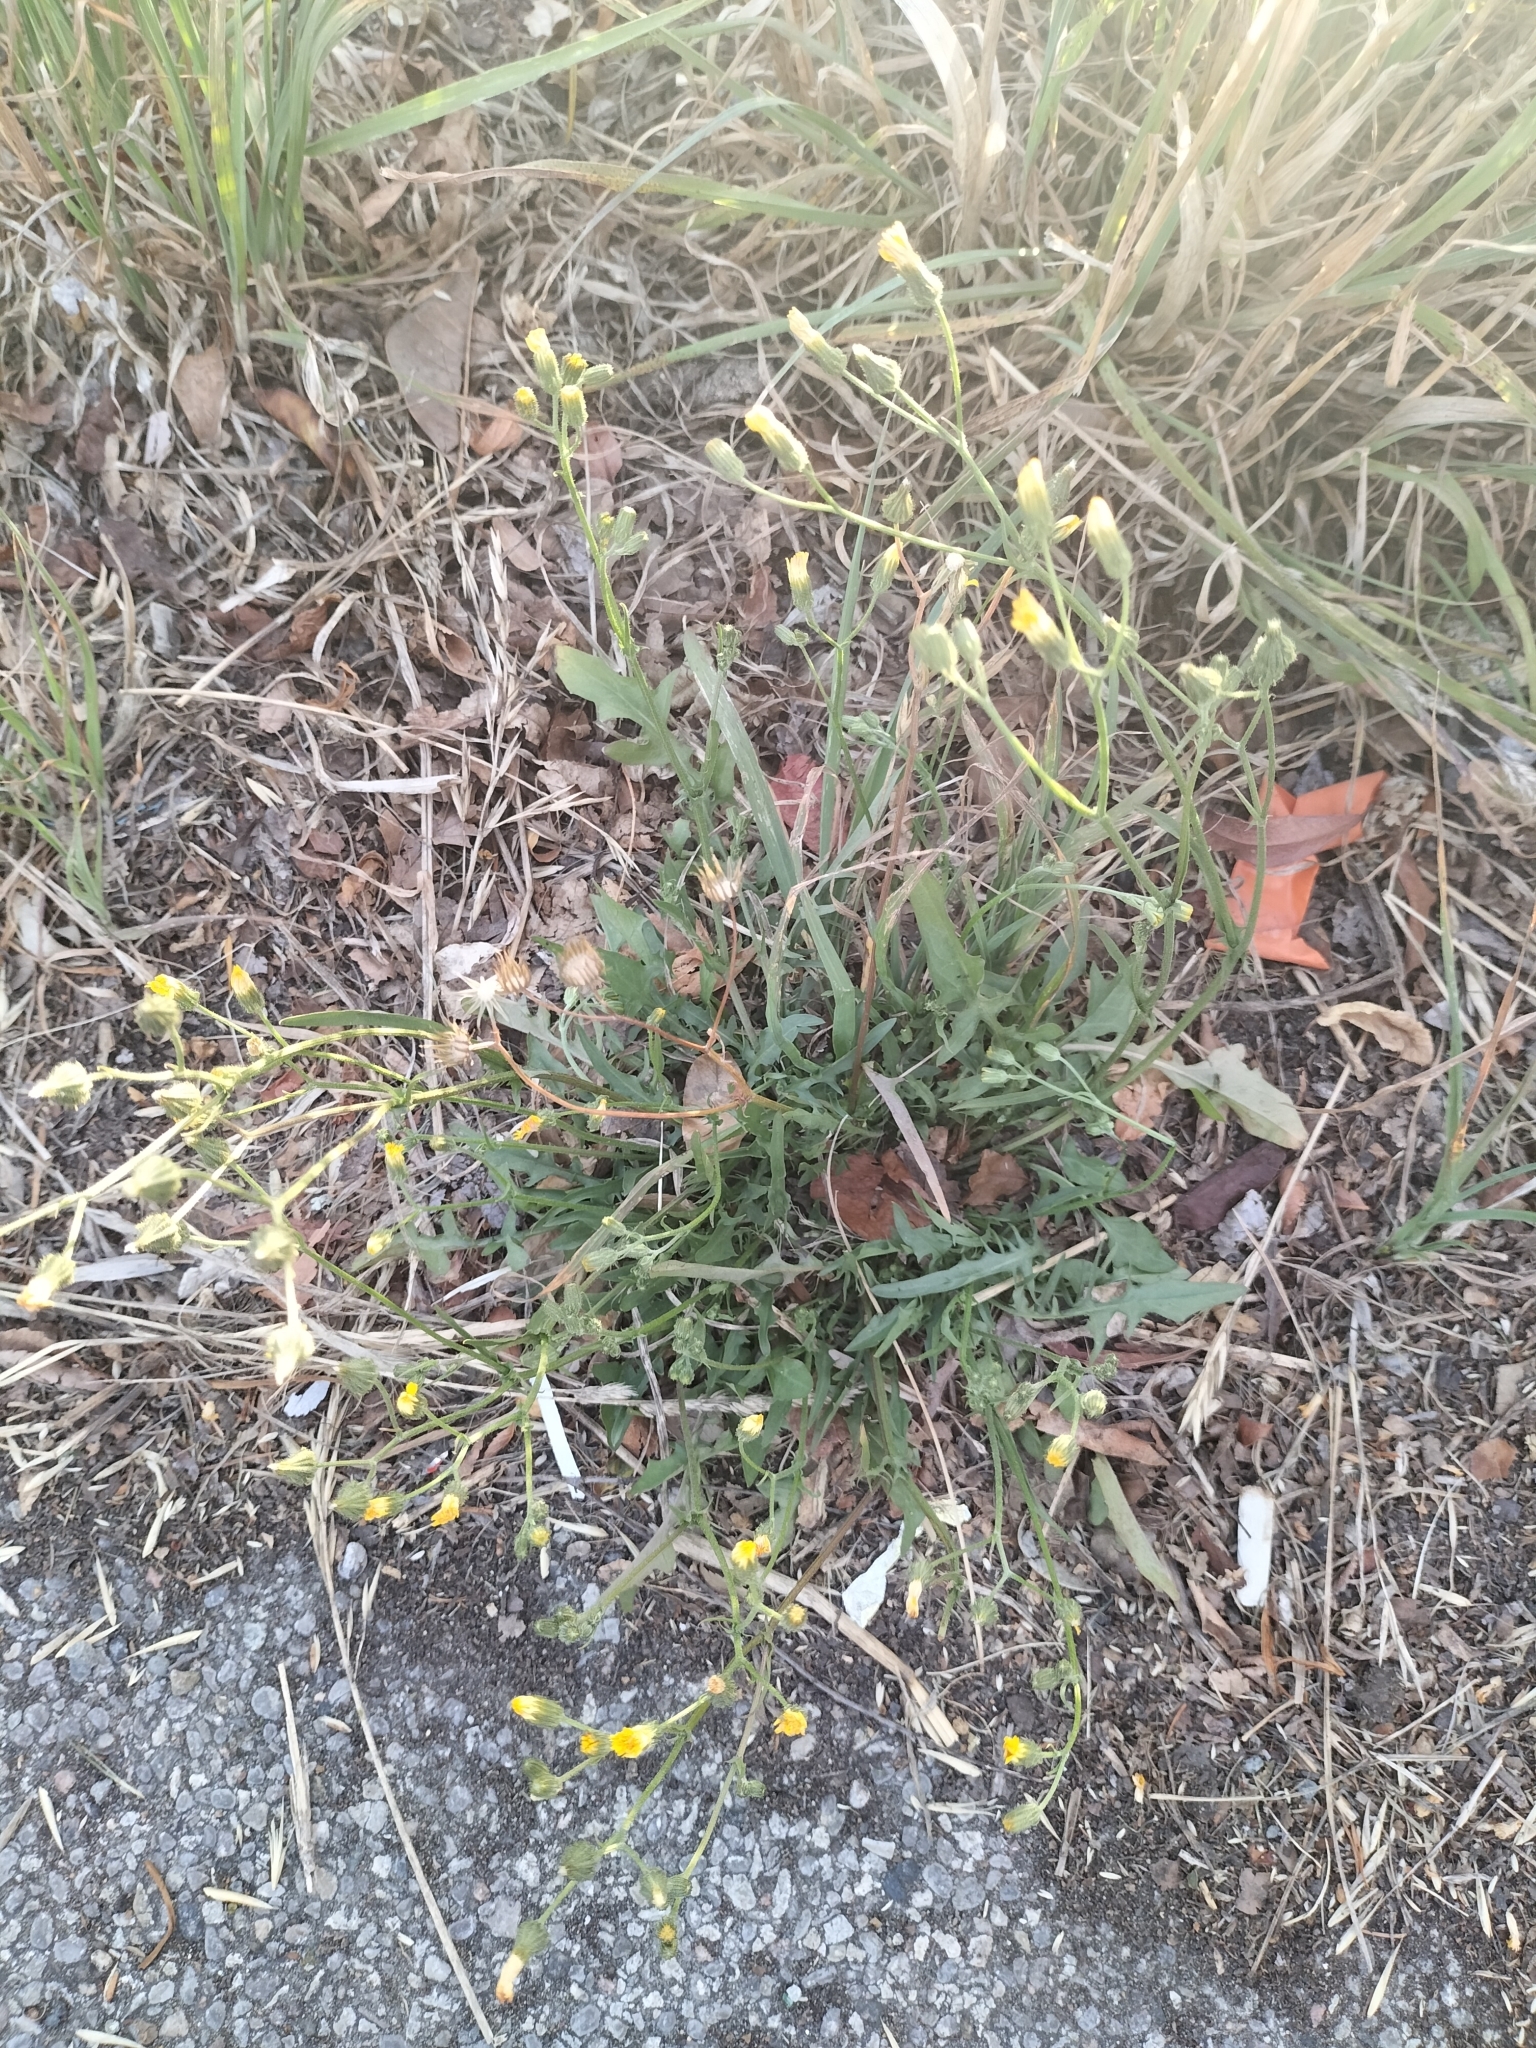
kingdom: Plantae
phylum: Tracheophyta
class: Magnoliopsida
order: Asterales
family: Asteraceae
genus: Crepis
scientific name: Crepis capillaris
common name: Smooth hawksbeard
